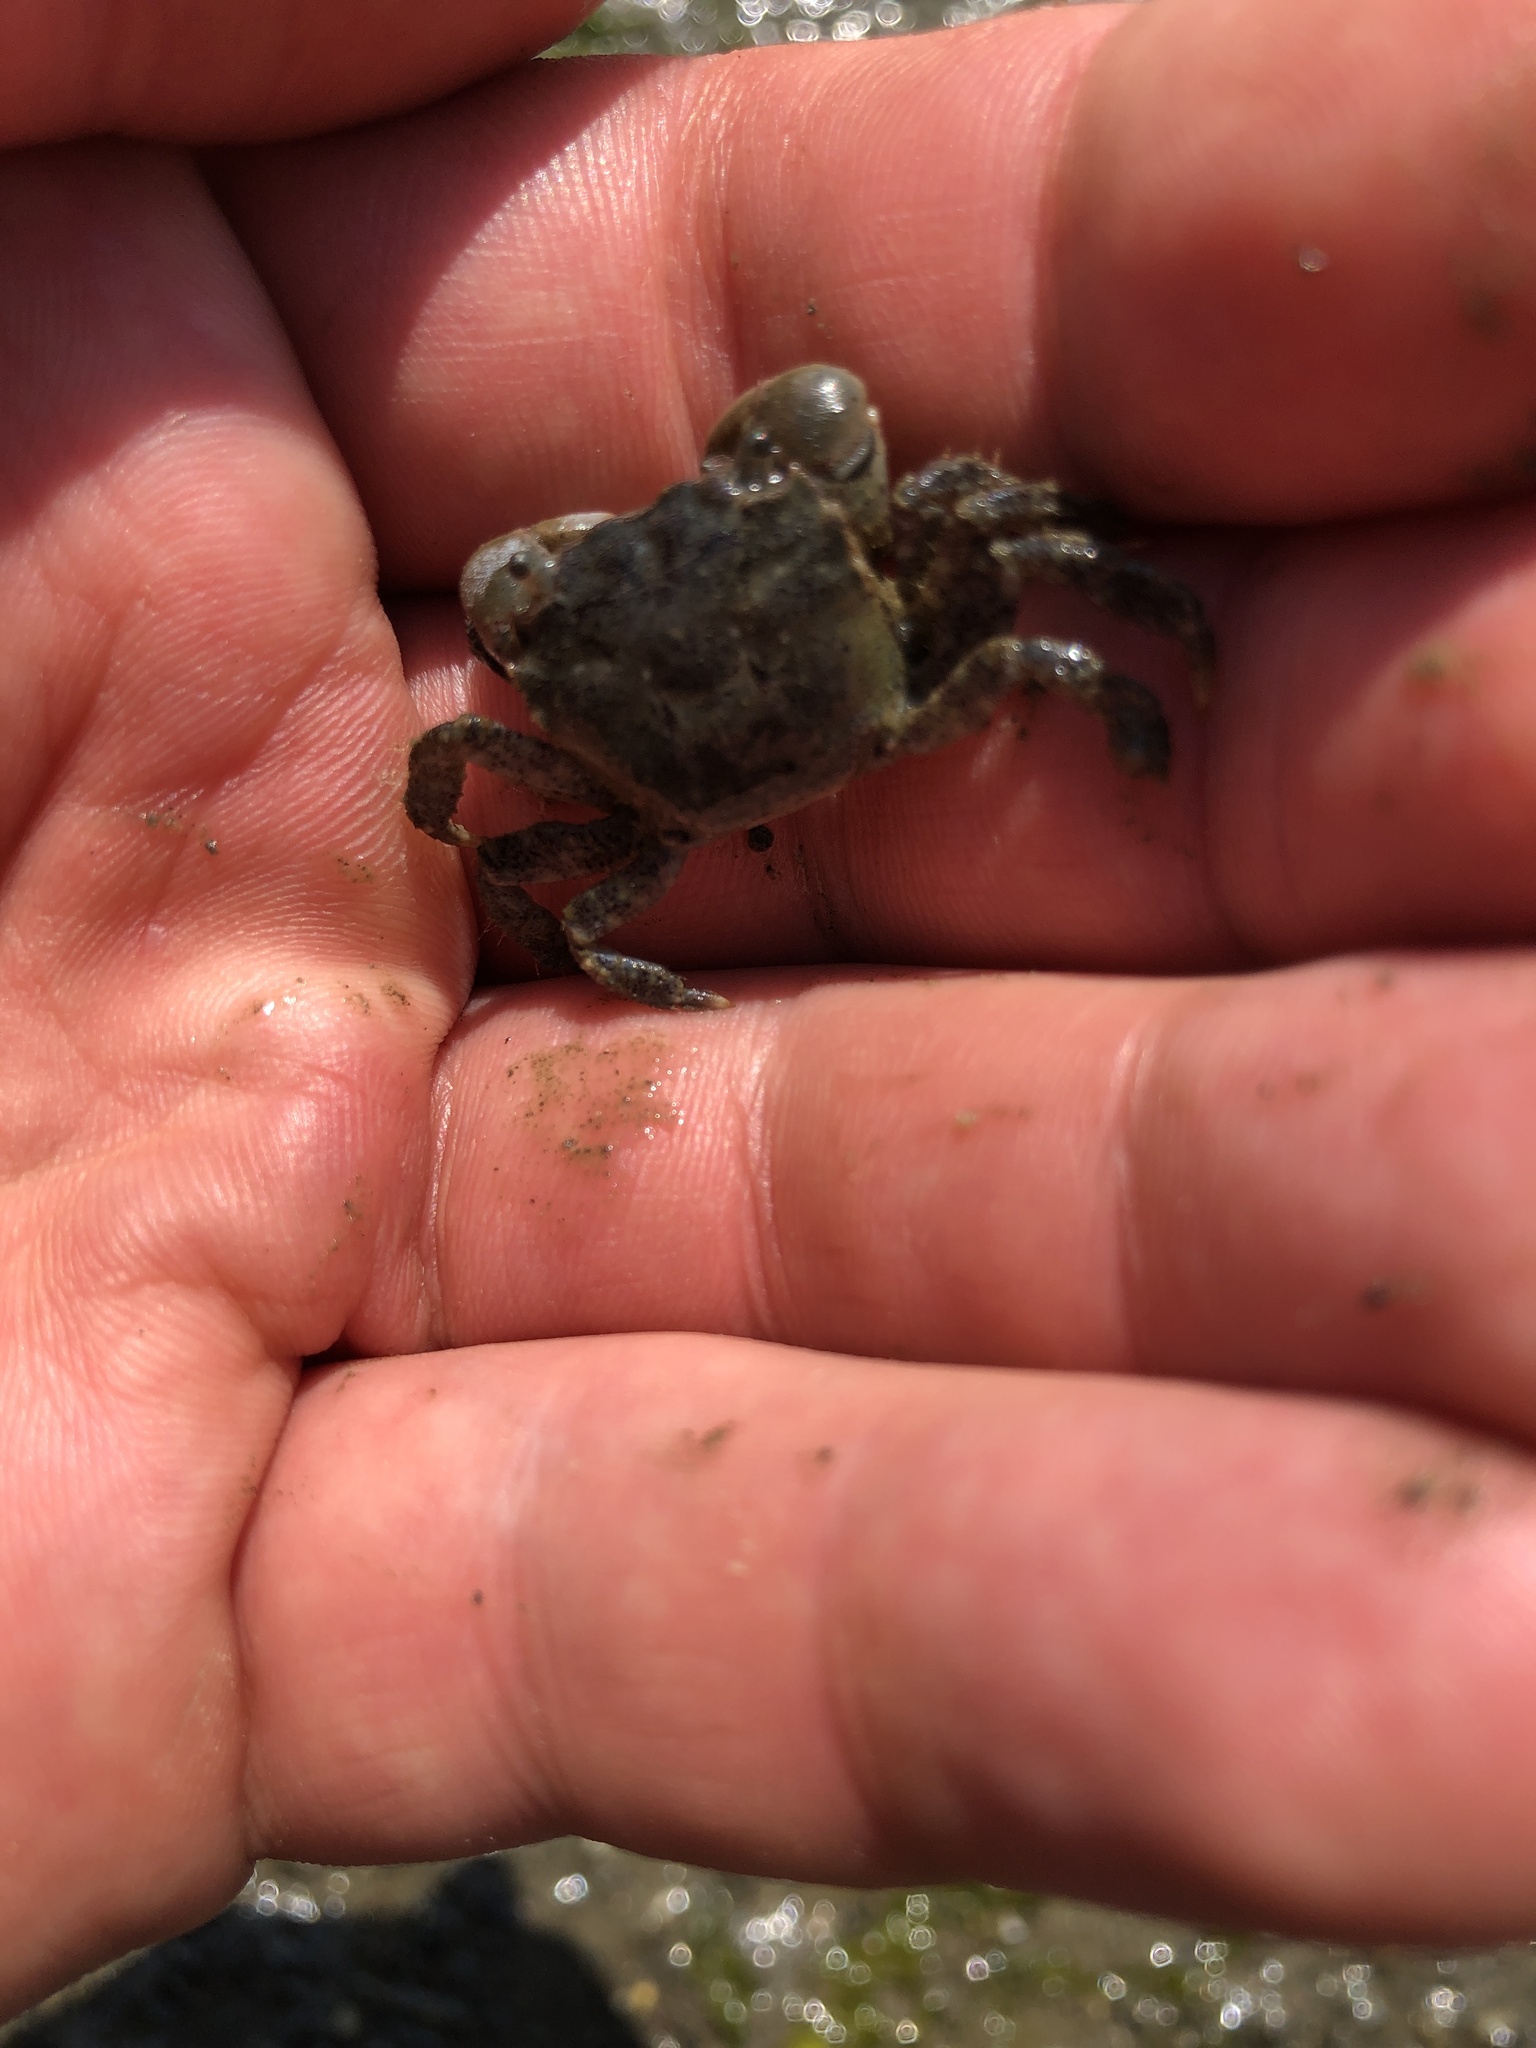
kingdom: Animalia
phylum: Arthropoda
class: Malacostraca
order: Decapoda
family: Varunidae
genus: Hemigrapsus
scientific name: Hemigrapsus oregonensis
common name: Yellow shore crab
